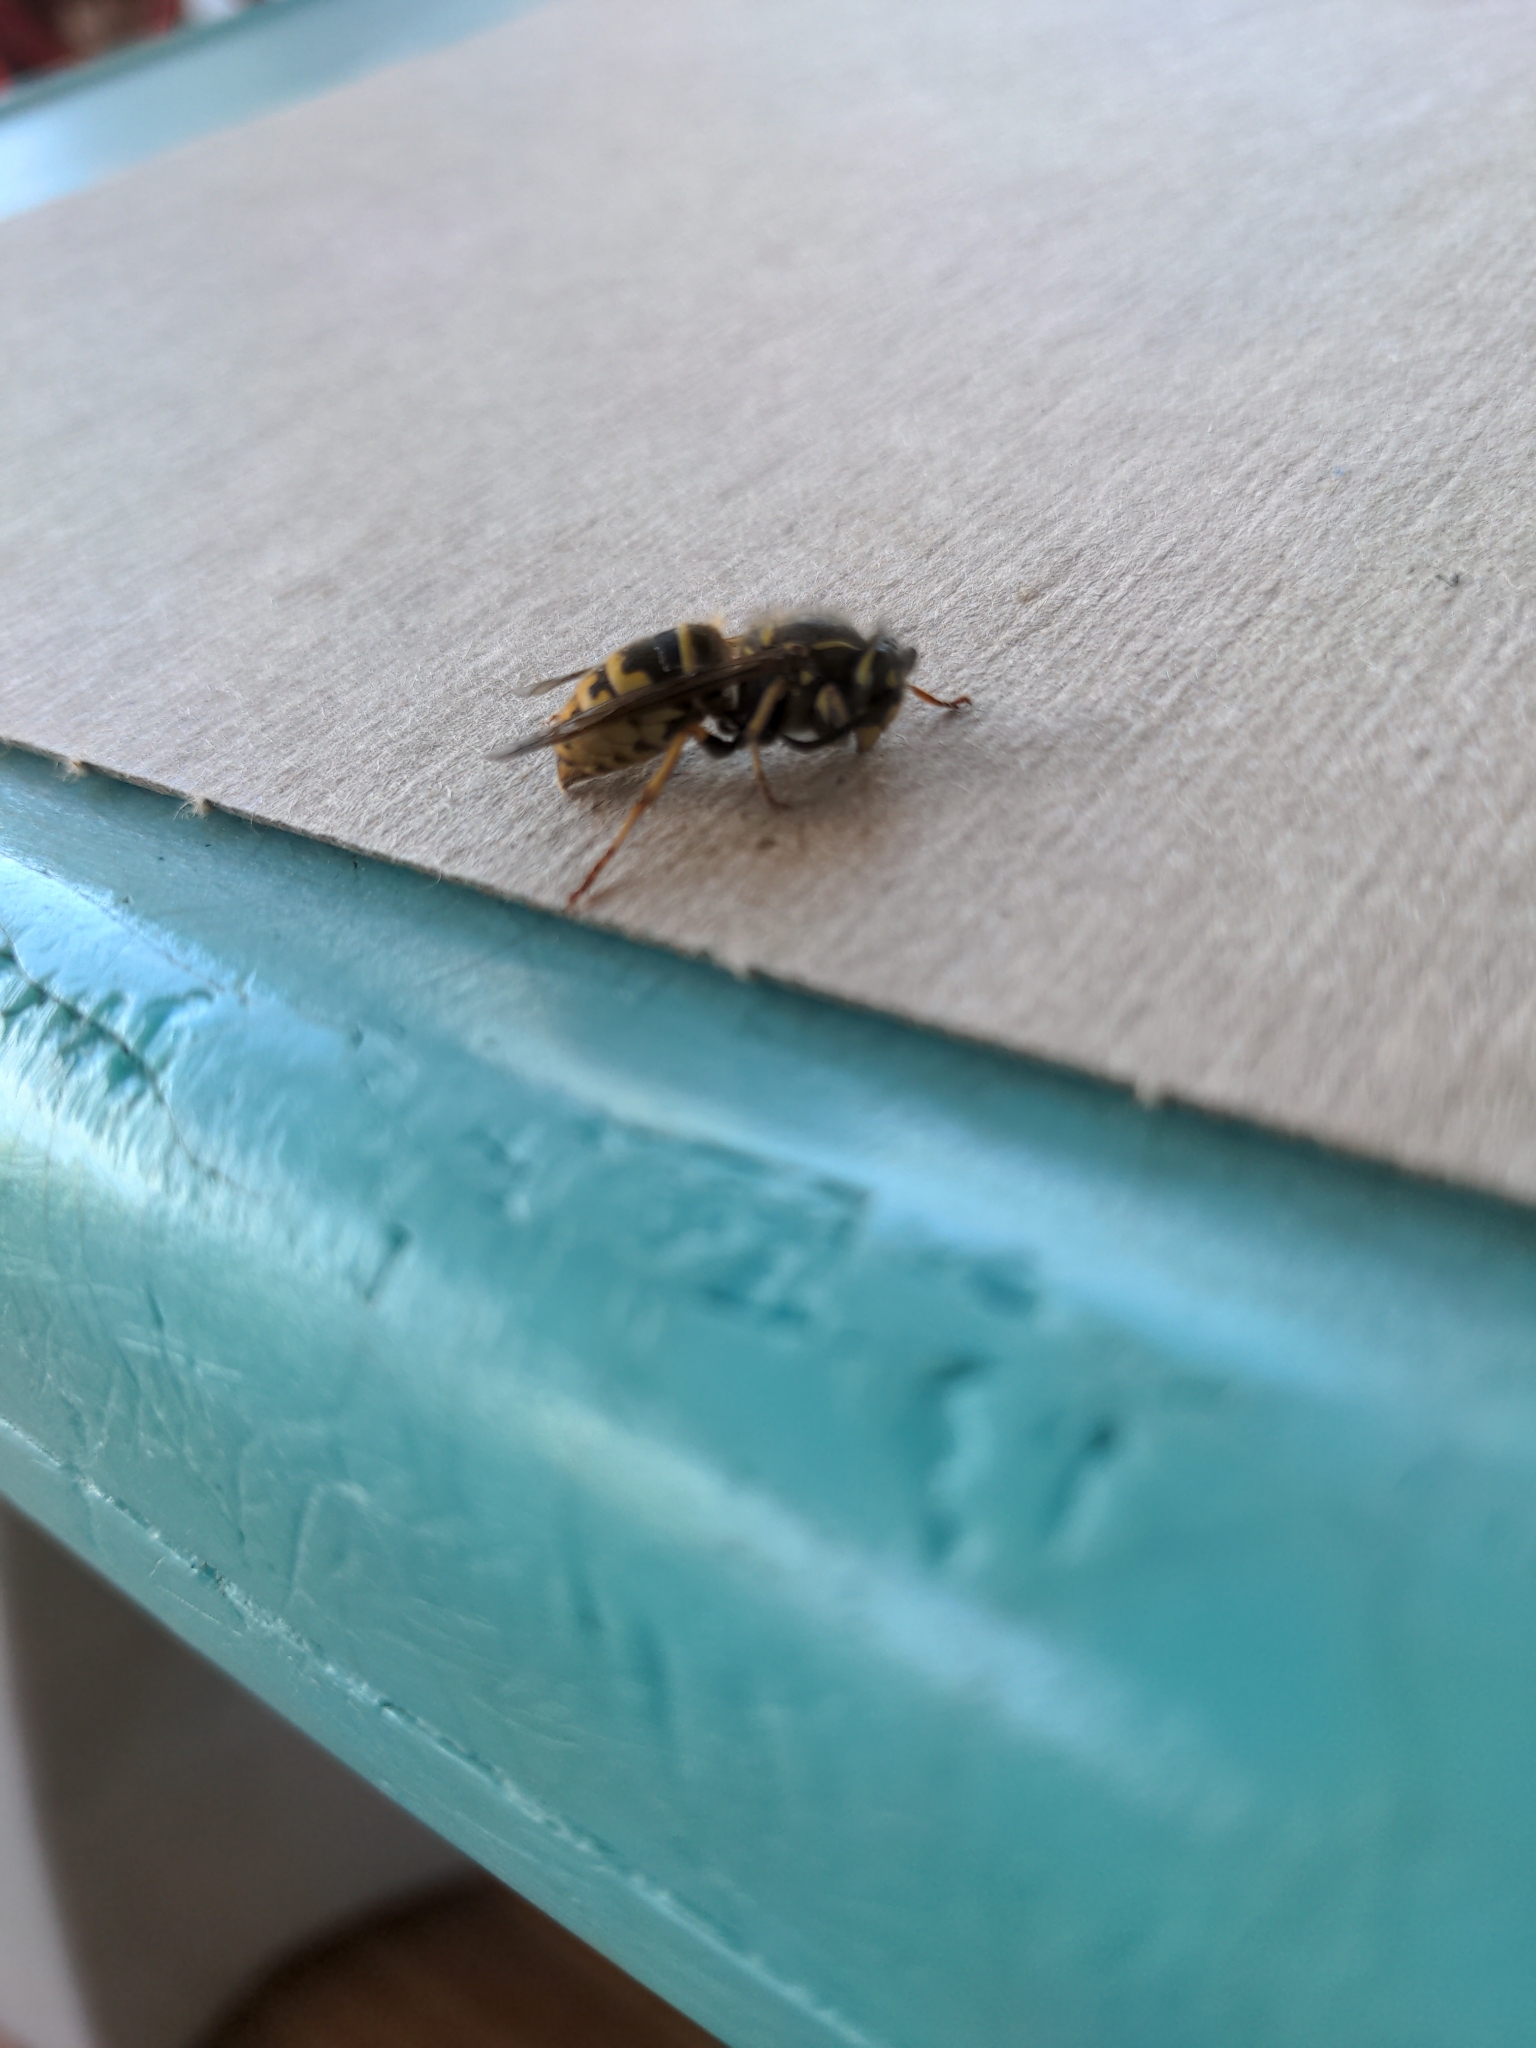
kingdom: Animalia
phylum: Arthropoda
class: Insecta
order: Hymenoptera
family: Vespidae
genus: Vespula
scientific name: Vespula alascensis
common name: Alaska yellowjacket
